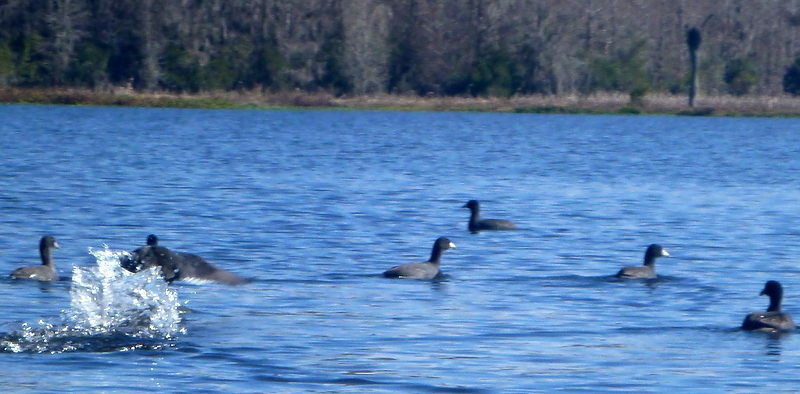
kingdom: Animalia
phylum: Chordata
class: Aves
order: Gruiformes
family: Rallidae
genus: Fulica
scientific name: Fulica americana
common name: American coot
